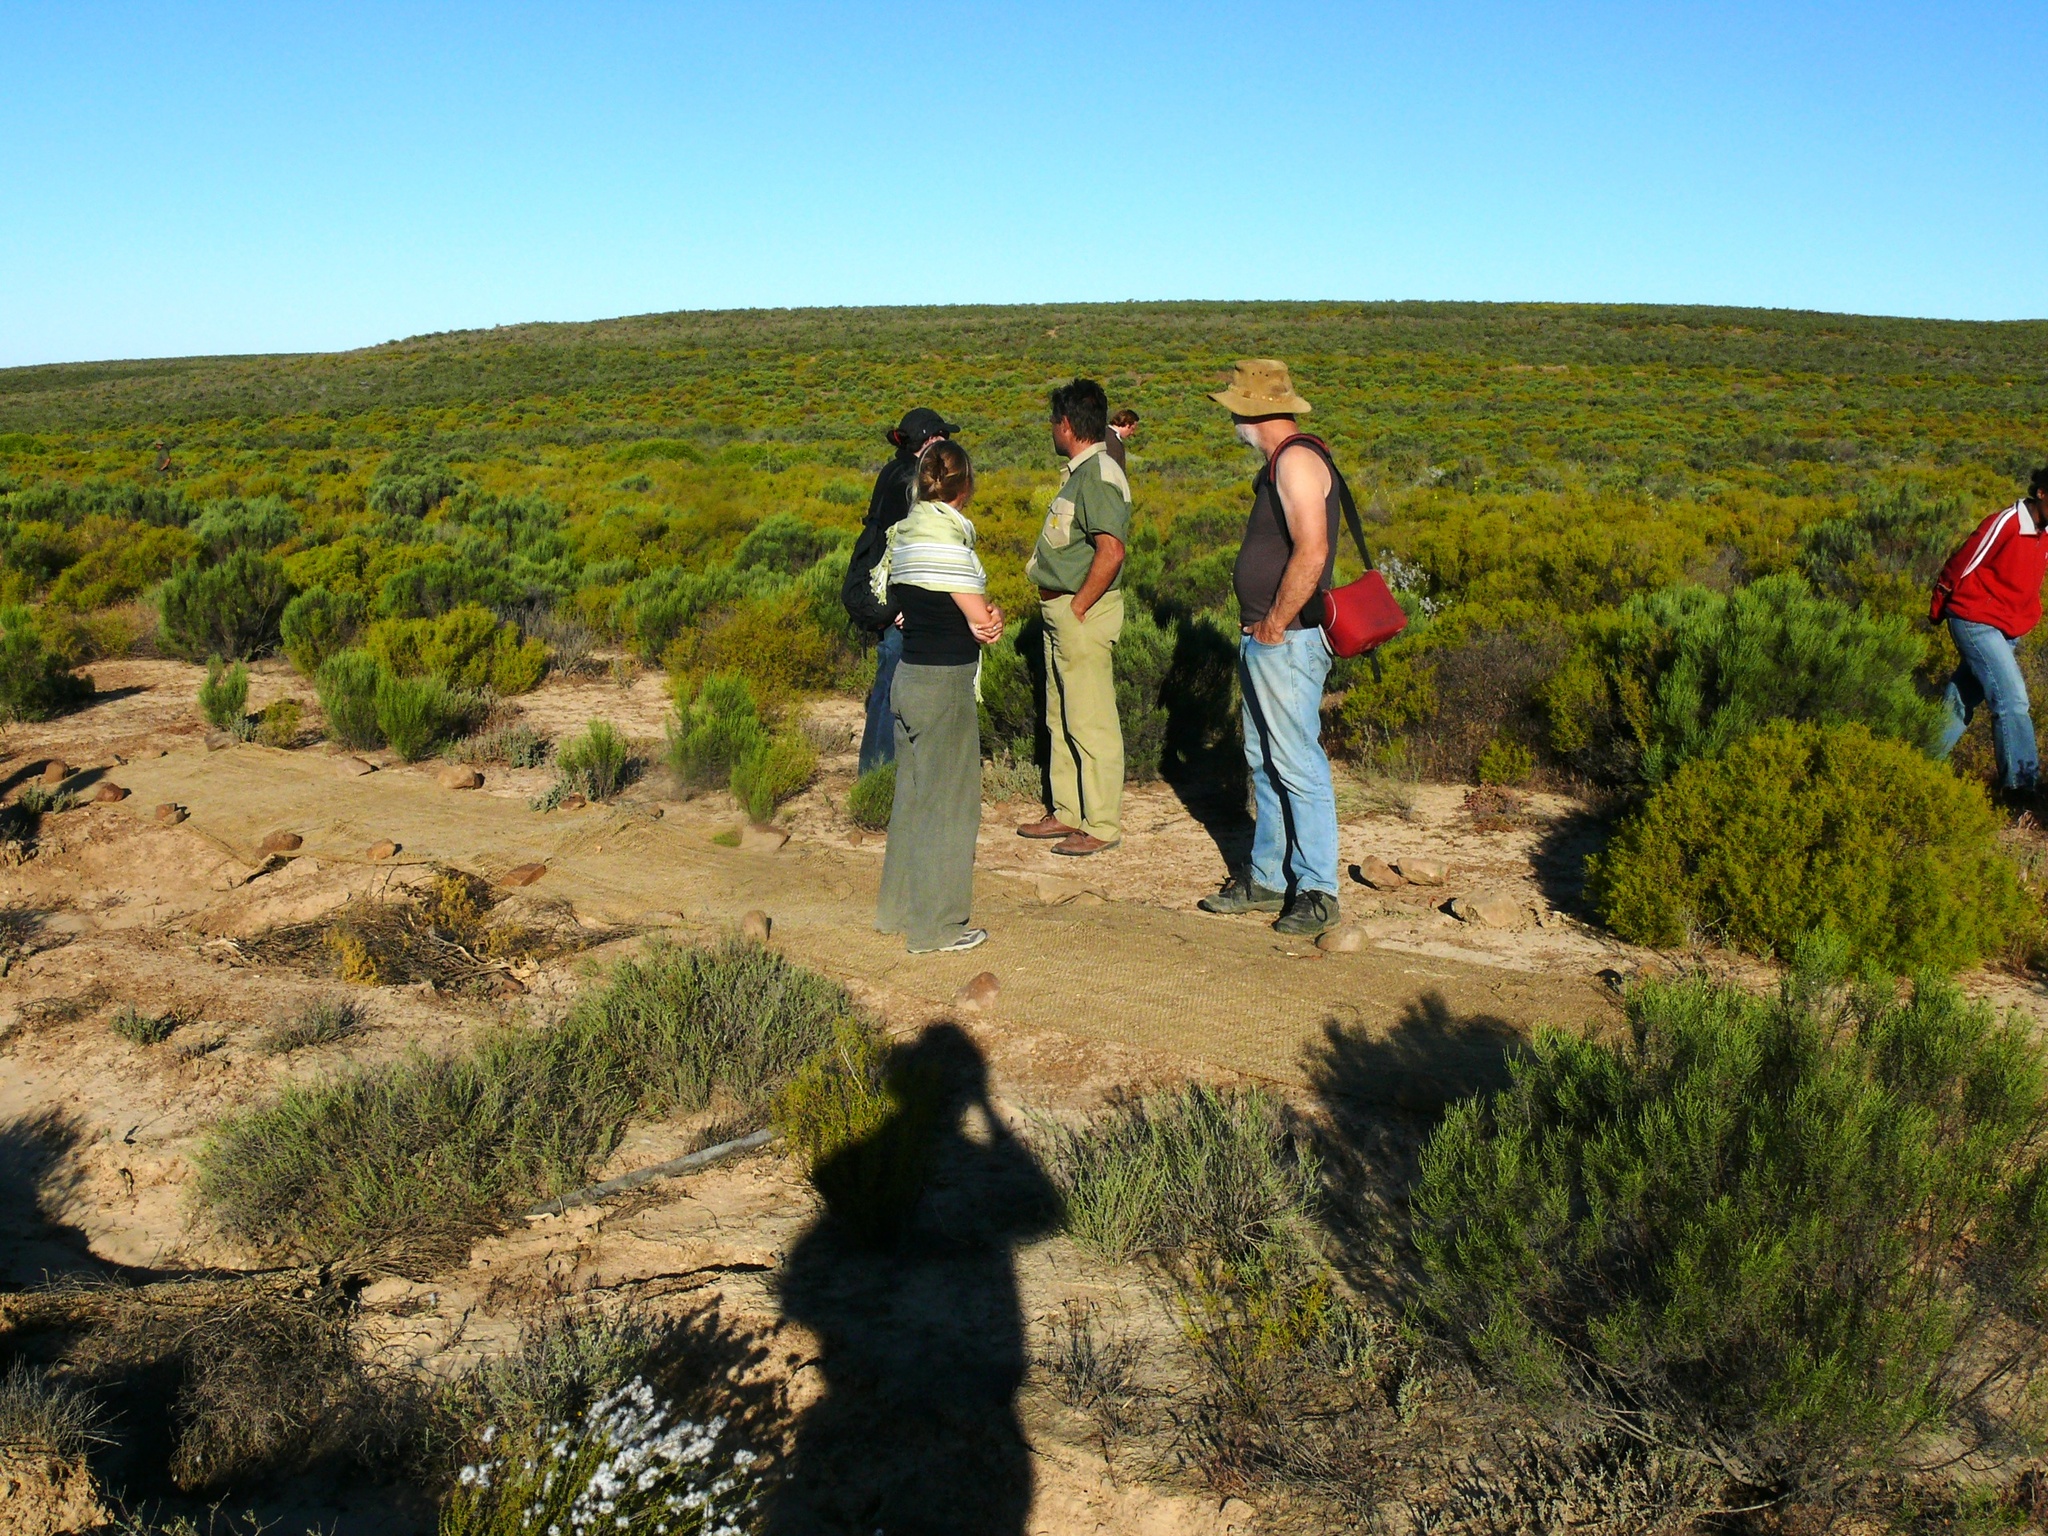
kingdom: Plantae
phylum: Tracheophyta
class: Magnoliopsida
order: Caryophyllales
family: Aizoaceae
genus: Aizoon
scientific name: Aizoon africanum
